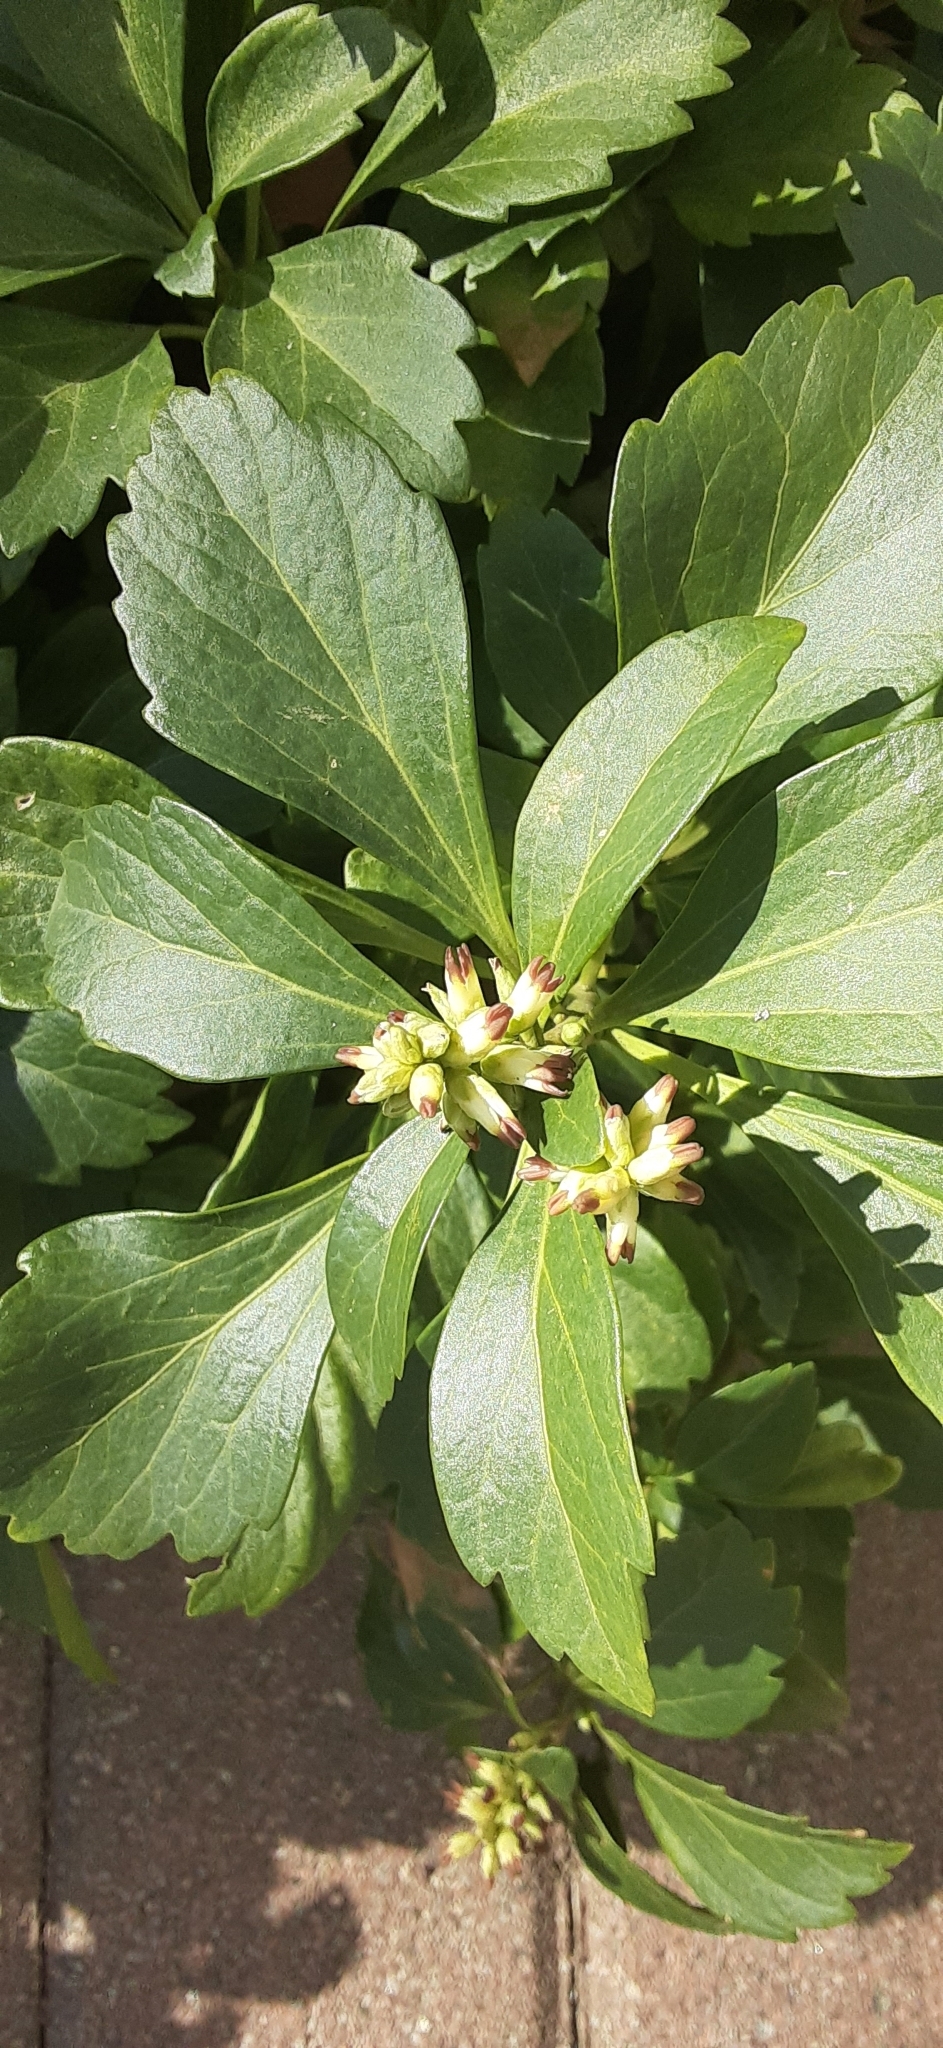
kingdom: Plantae
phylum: Tracheophyta
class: Magnoliopsida
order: Buxales
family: Buxaceae
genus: Pachysandra
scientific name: Pachysandra terminalis
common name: Japanese pachysandra
